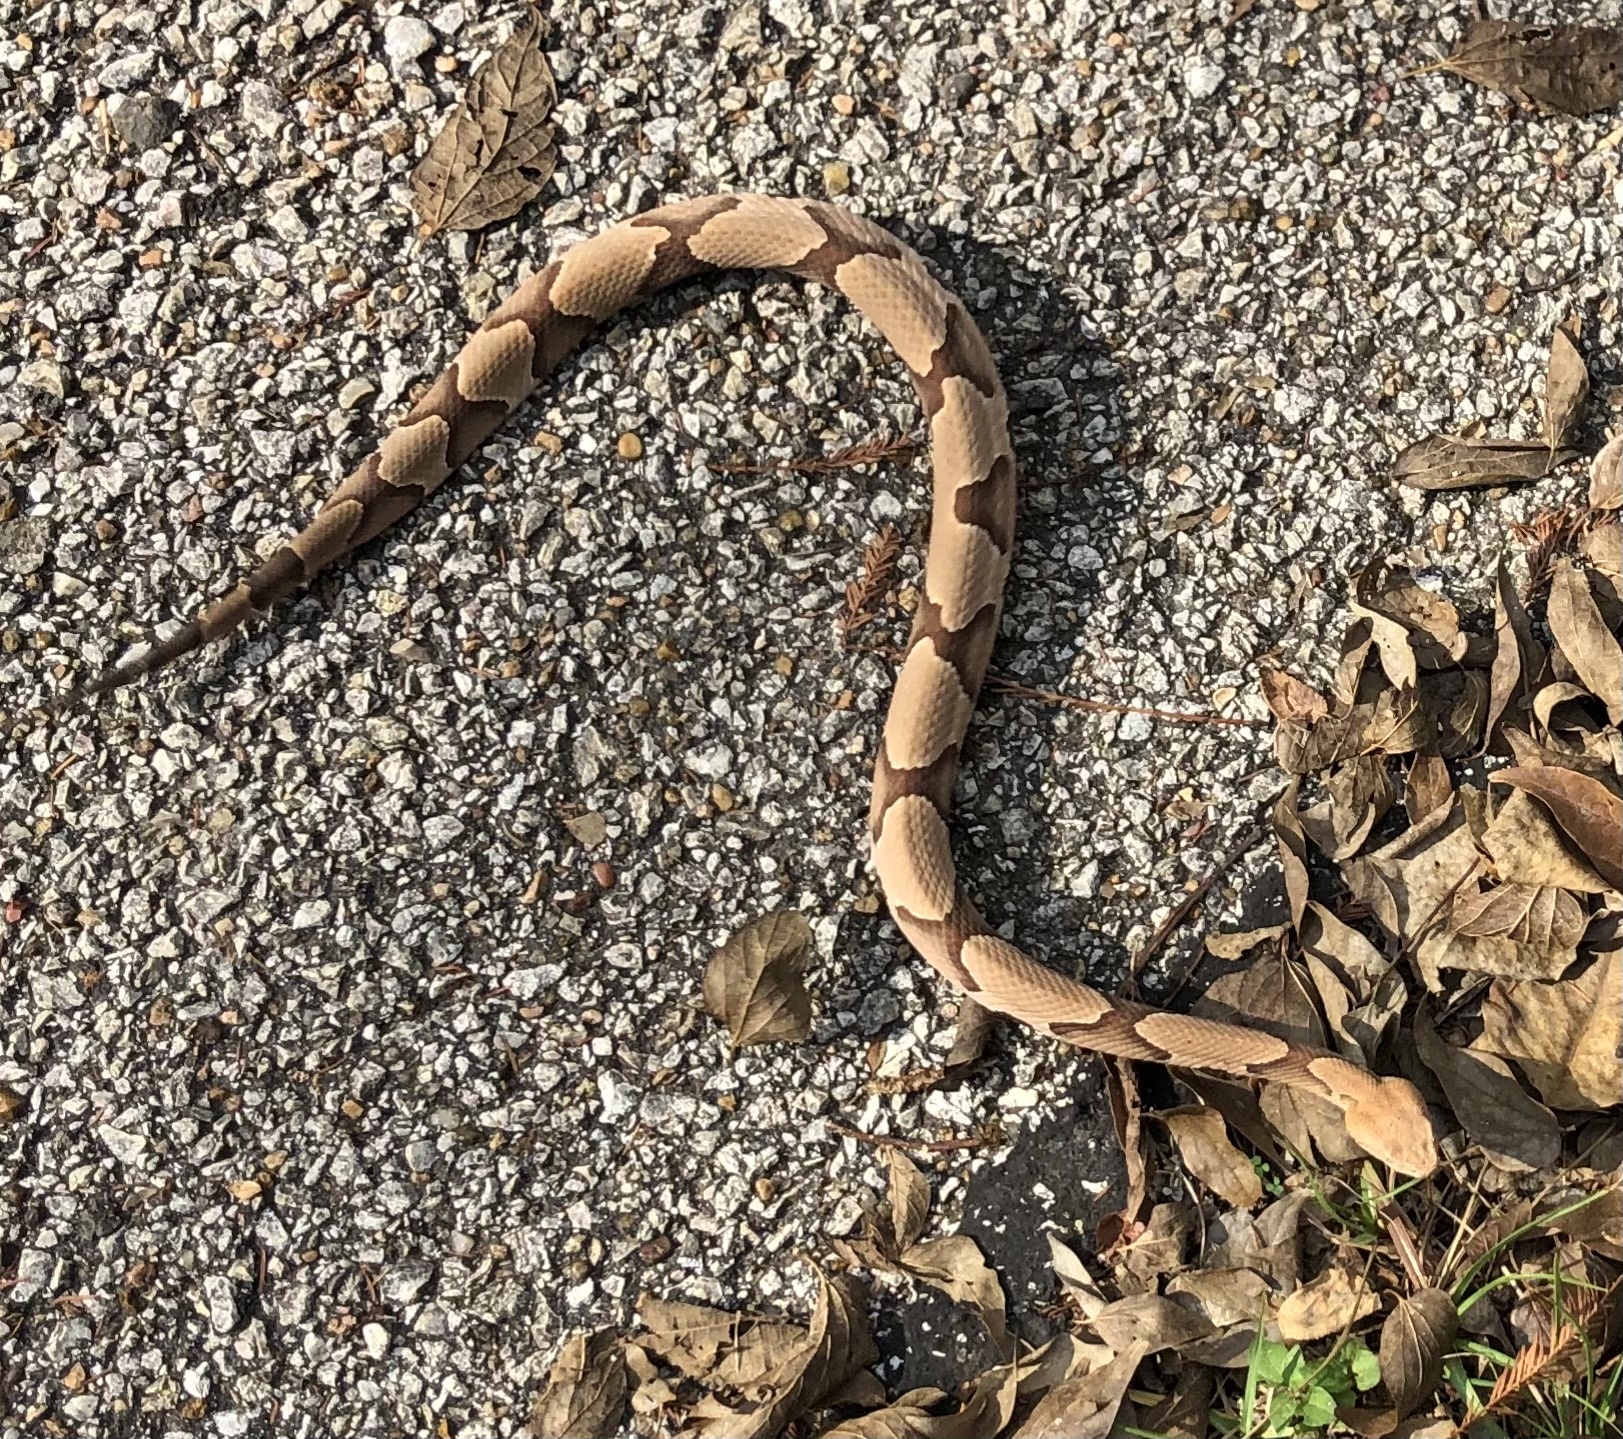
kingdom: Animalia
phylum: Chordata
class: Squamata
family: Viperidae
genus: Agkistrodon
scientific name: Agkistrodon contortrix
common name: Northern copperhead
